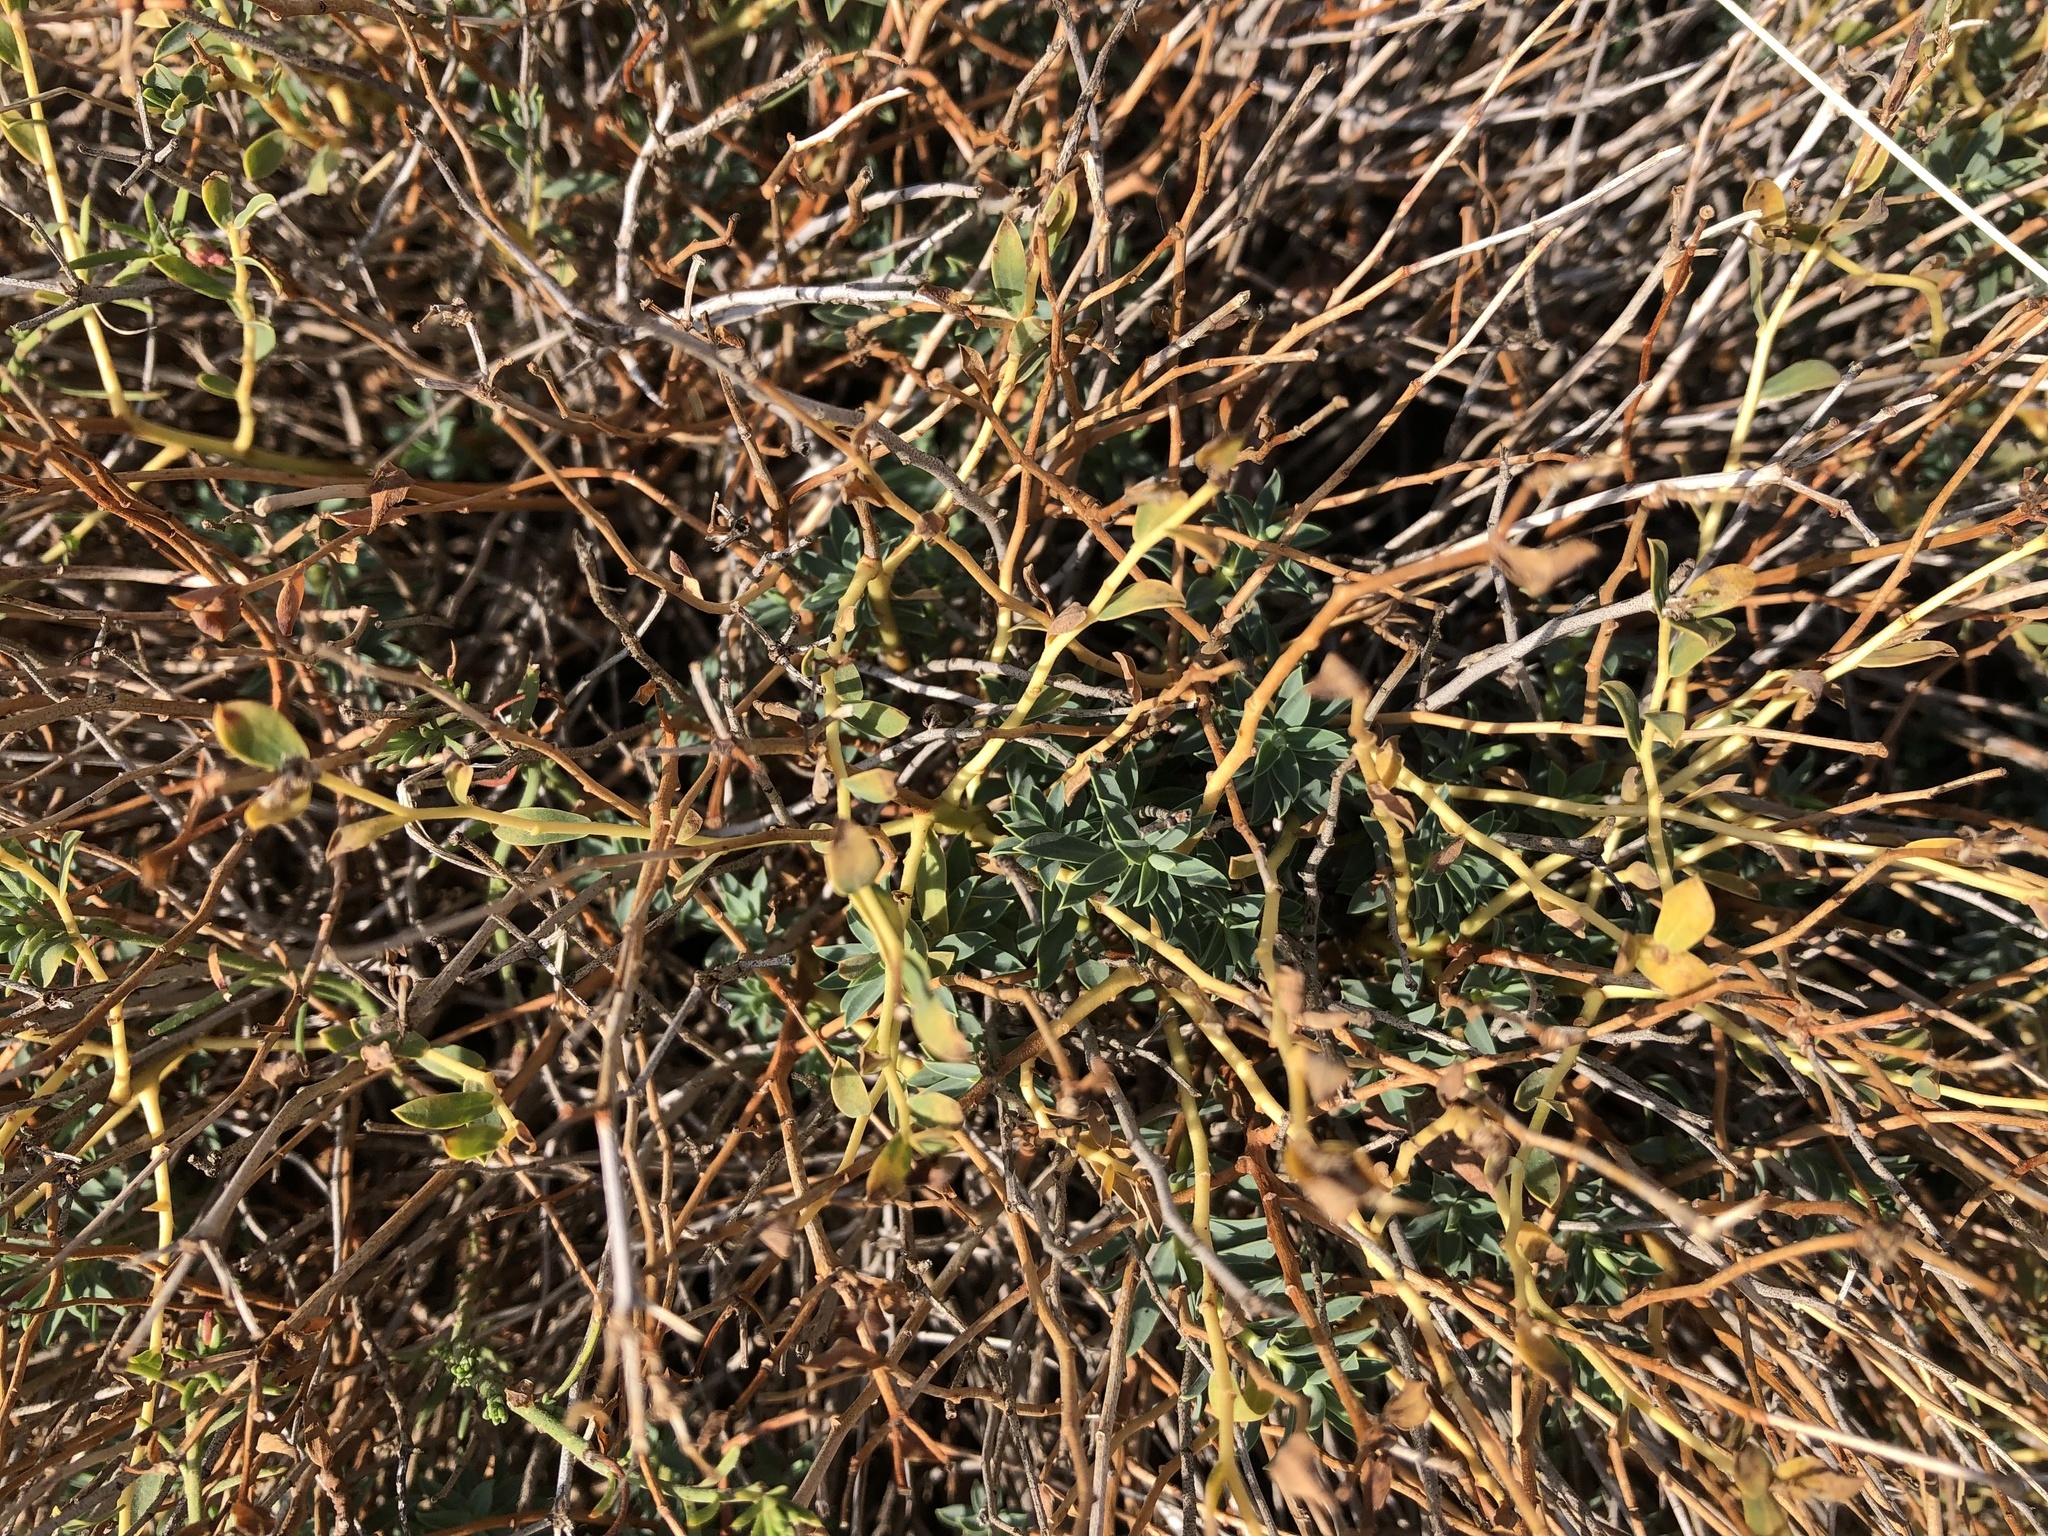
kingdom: Plantae
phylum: Tracheophyta
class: Magnoliopsida
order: Malpighiales
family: Euphorbiaceae
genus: Euphorbia
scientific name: Euphorbia spinosa
